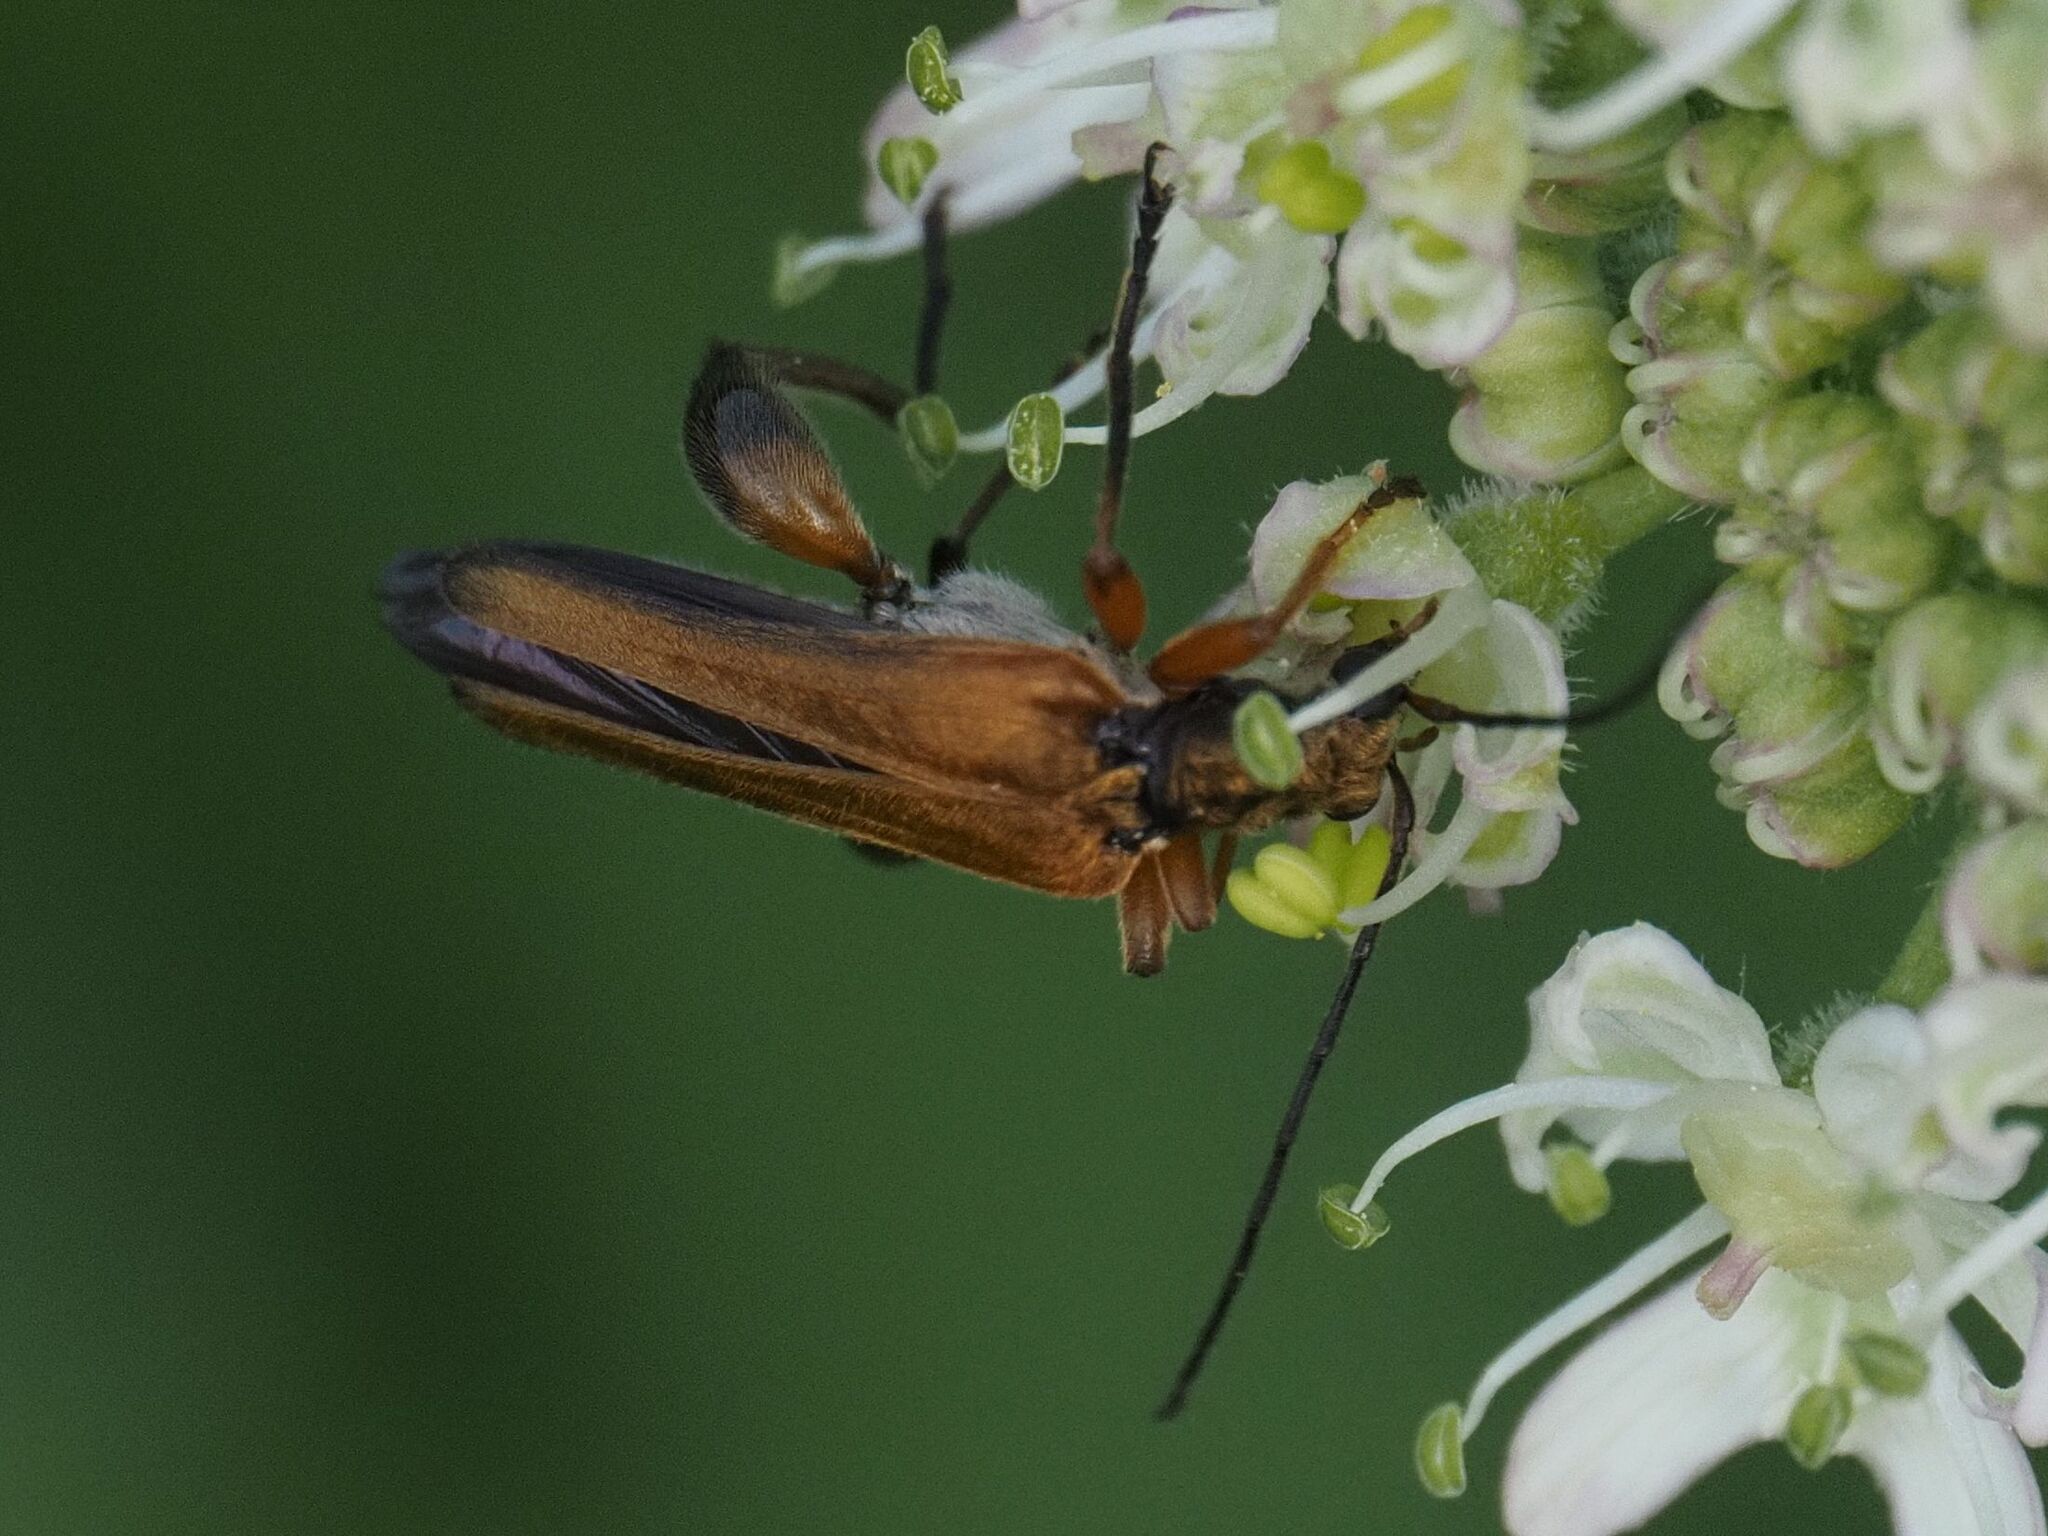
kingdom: Animalia
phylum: Arthropoda
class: Insecta
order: Coleoptera
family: Oedemeridae
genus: Oedemera
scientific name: Oedemera podagrariae
